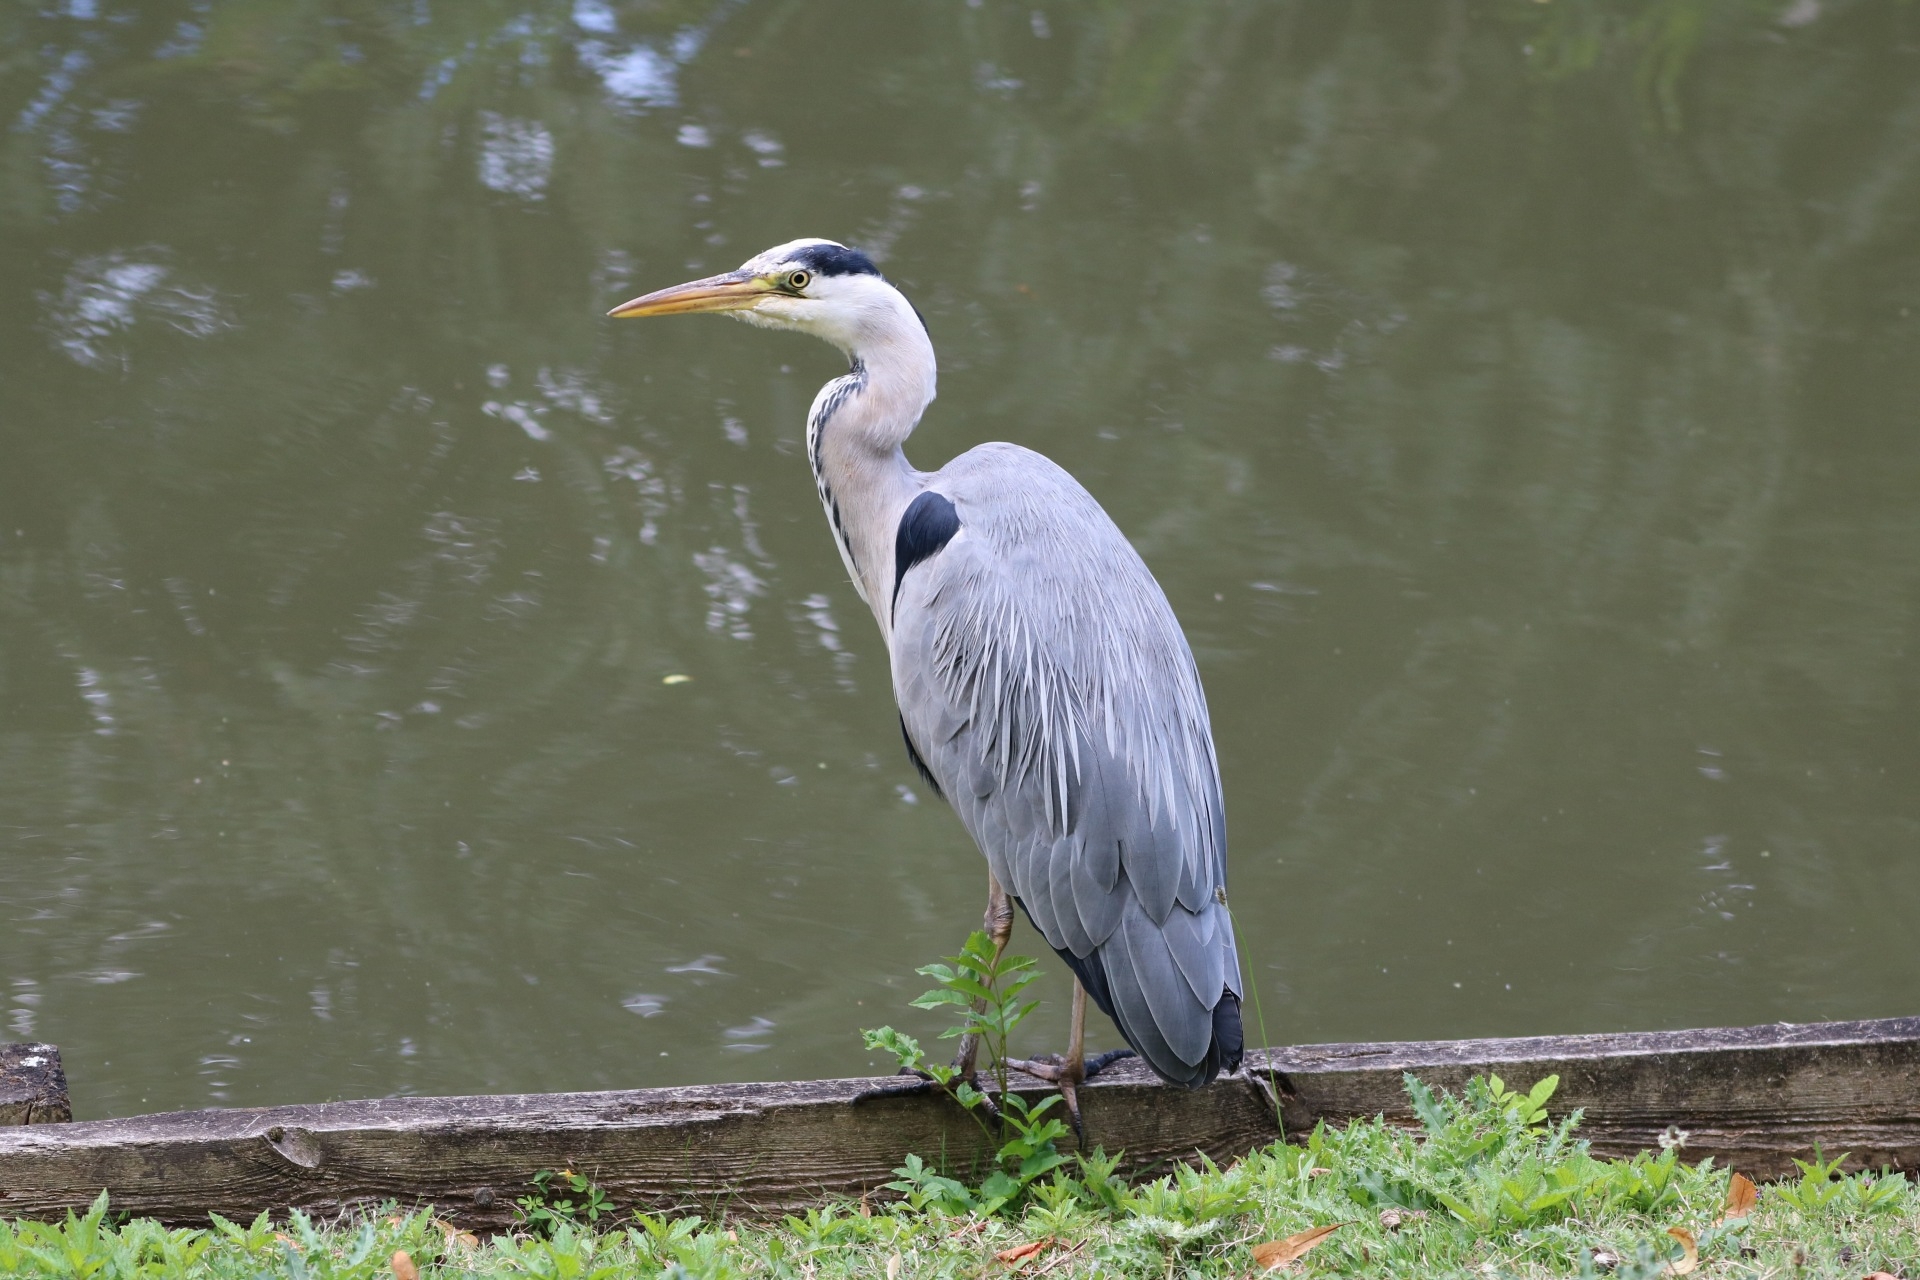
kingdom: Animalia
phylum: Chordata
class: Aves
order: Pelecaniformes
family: Ardeidae
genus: Ardea
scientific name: Ardea cinerea
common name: Grey heron
